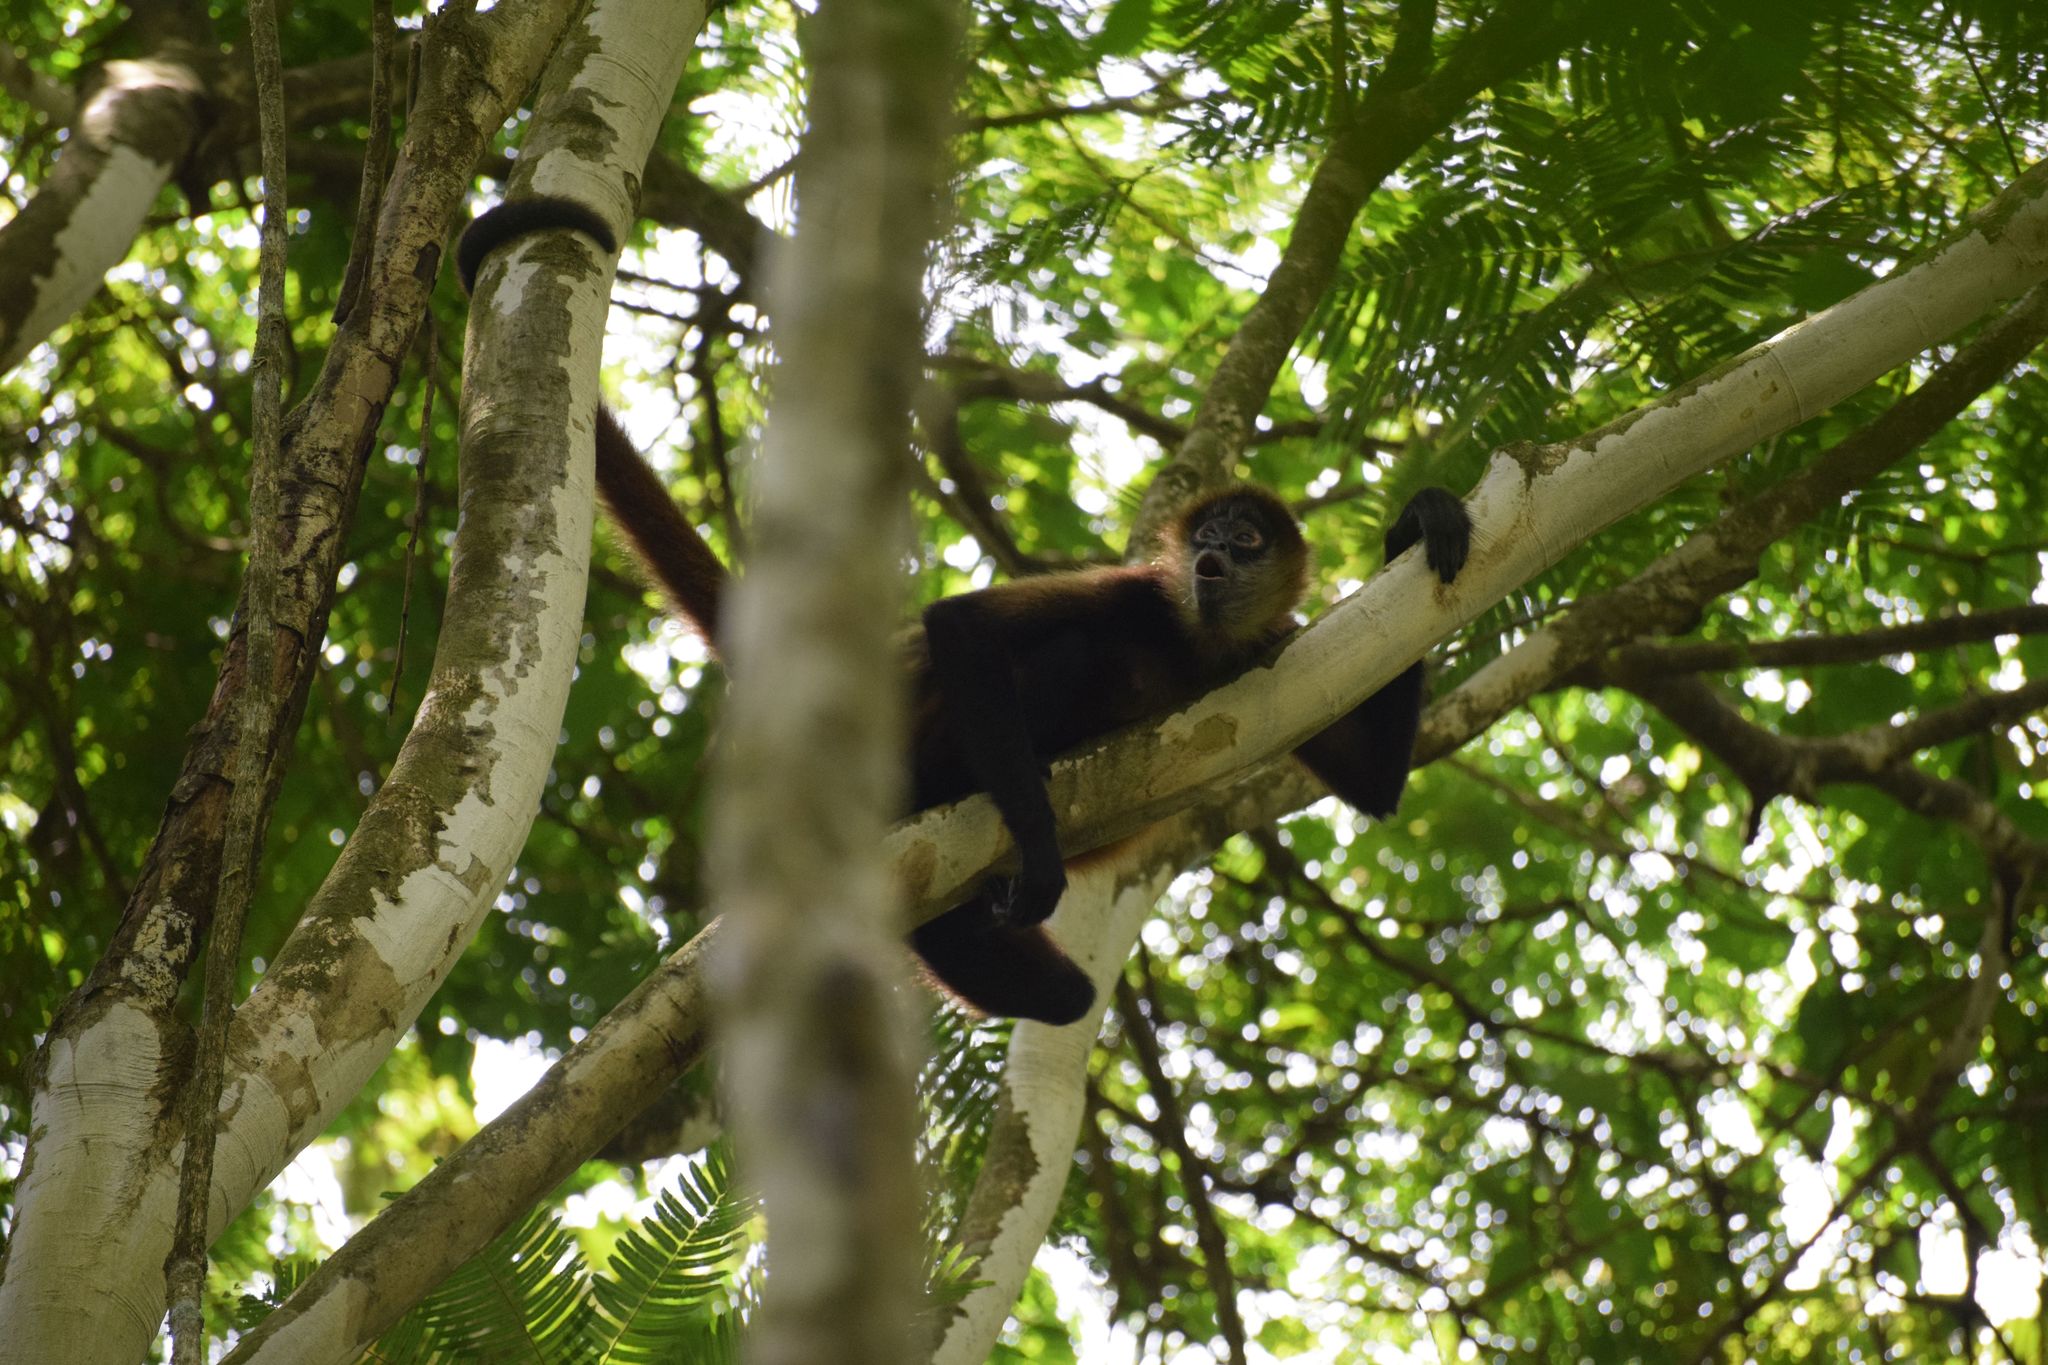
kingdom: Animalia
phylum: Chordata
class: Mammalia
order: Primates
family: Atelidae
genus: Ateles
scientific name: Ateles geoffroyi
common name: Black-handed spider monkey
